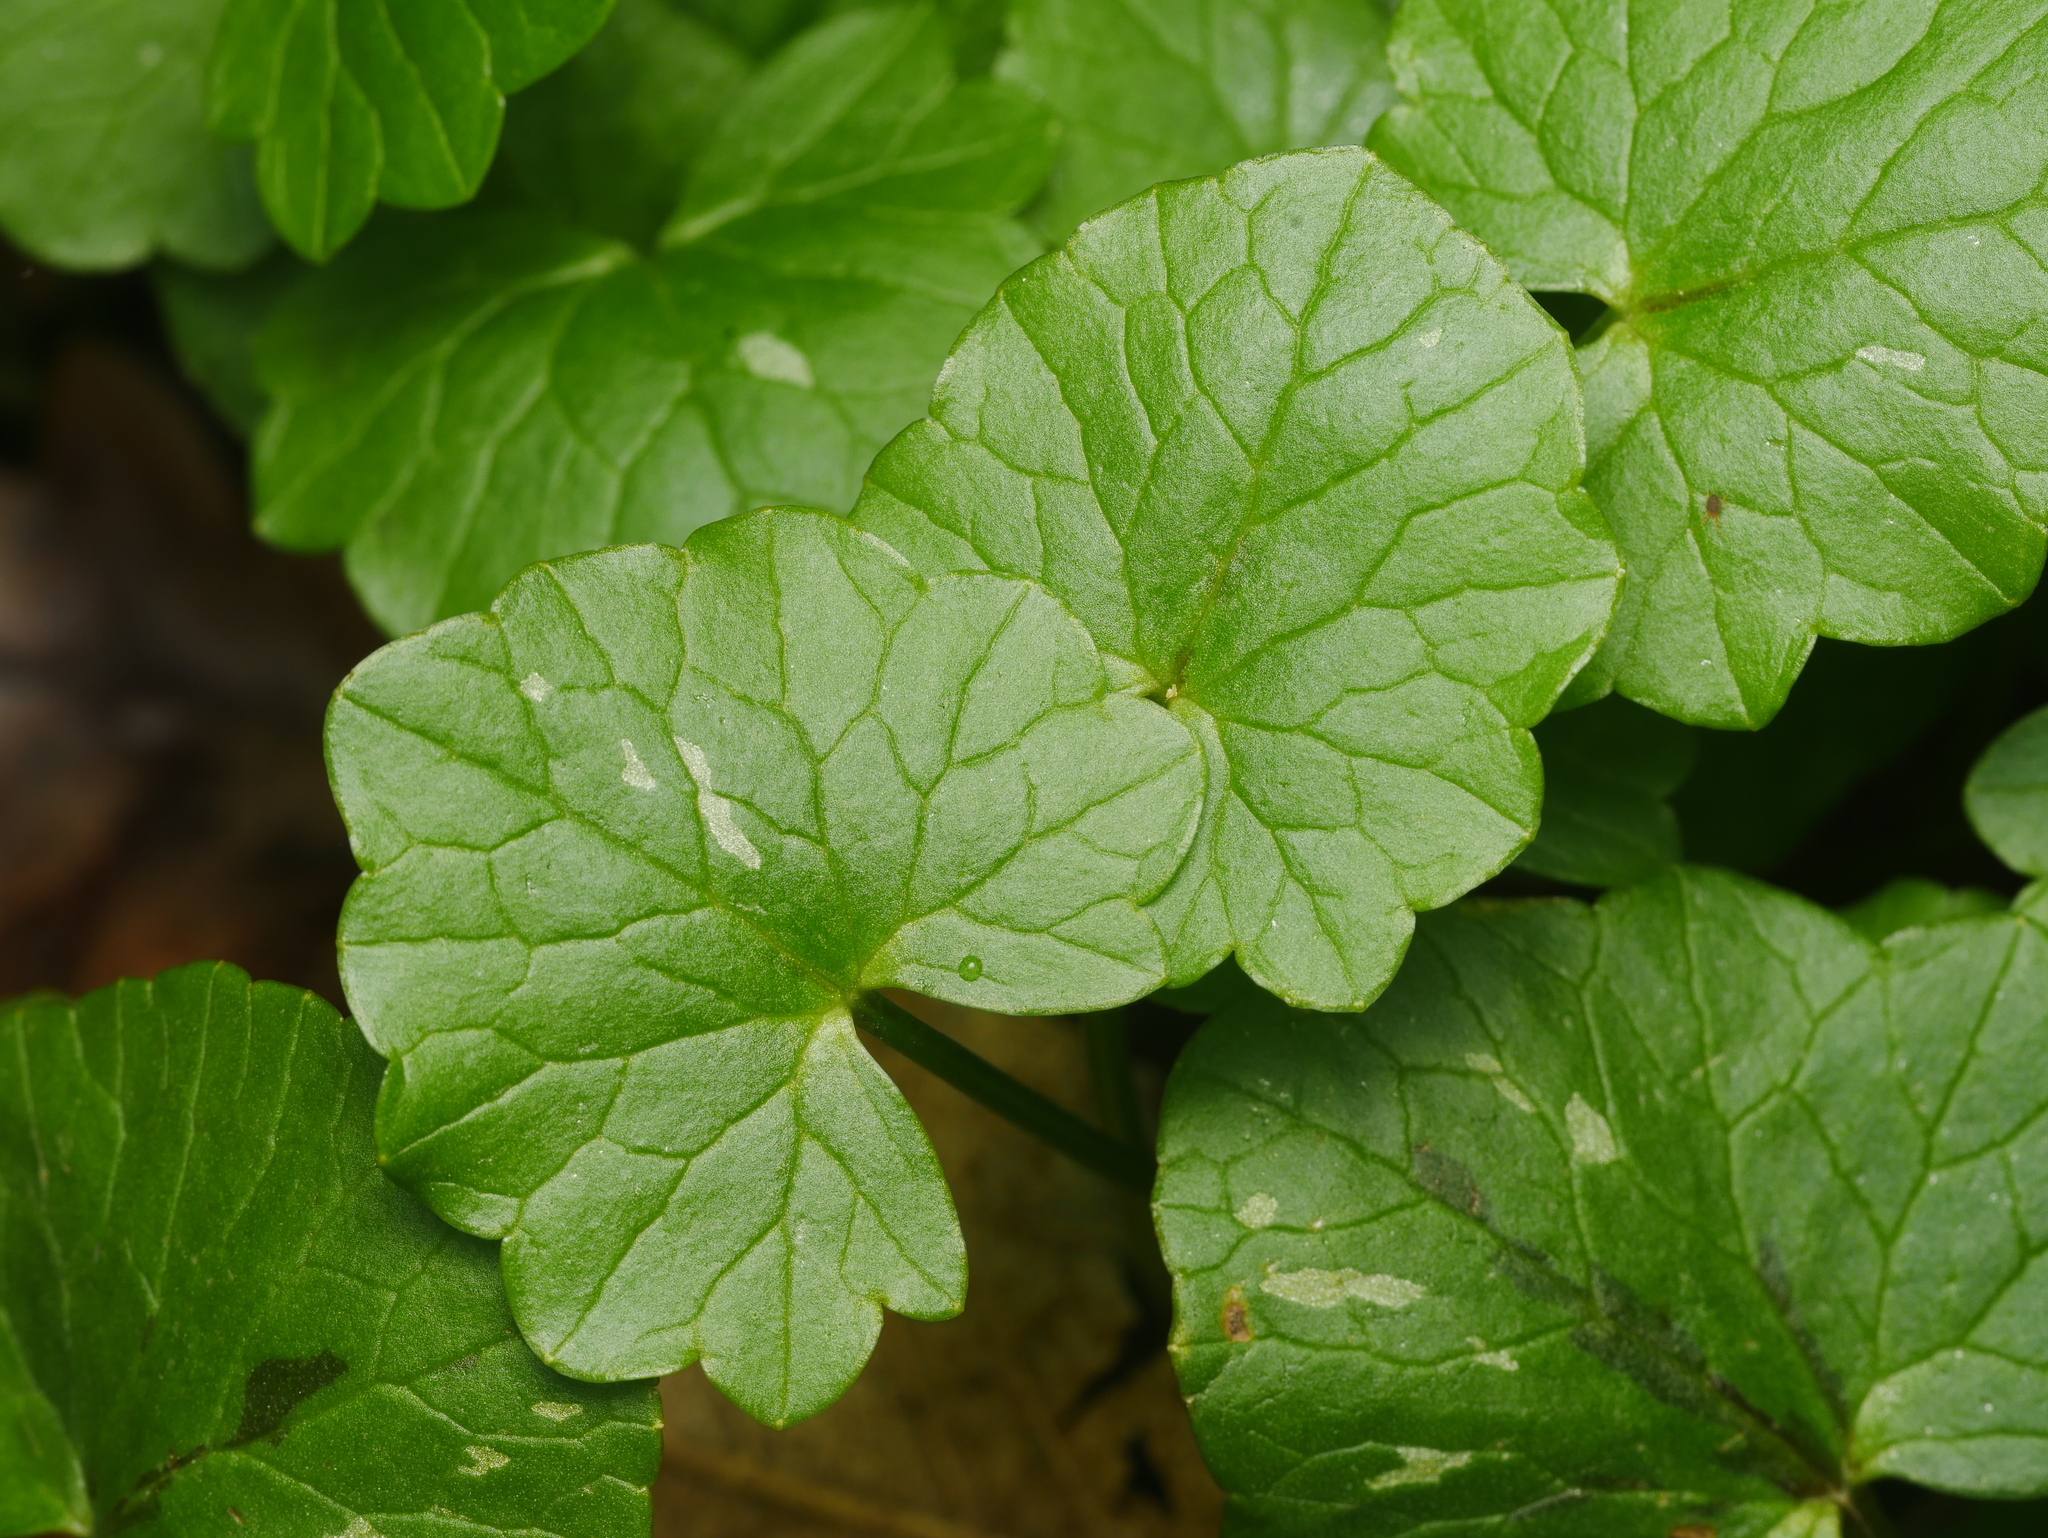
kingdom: Plantae
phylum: Tracheophyta
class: Magnoliopsida
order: Ranunculales
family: Ranunculaceae
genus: Ficaria
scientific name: Ficaria verna
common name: Lesser celandine
